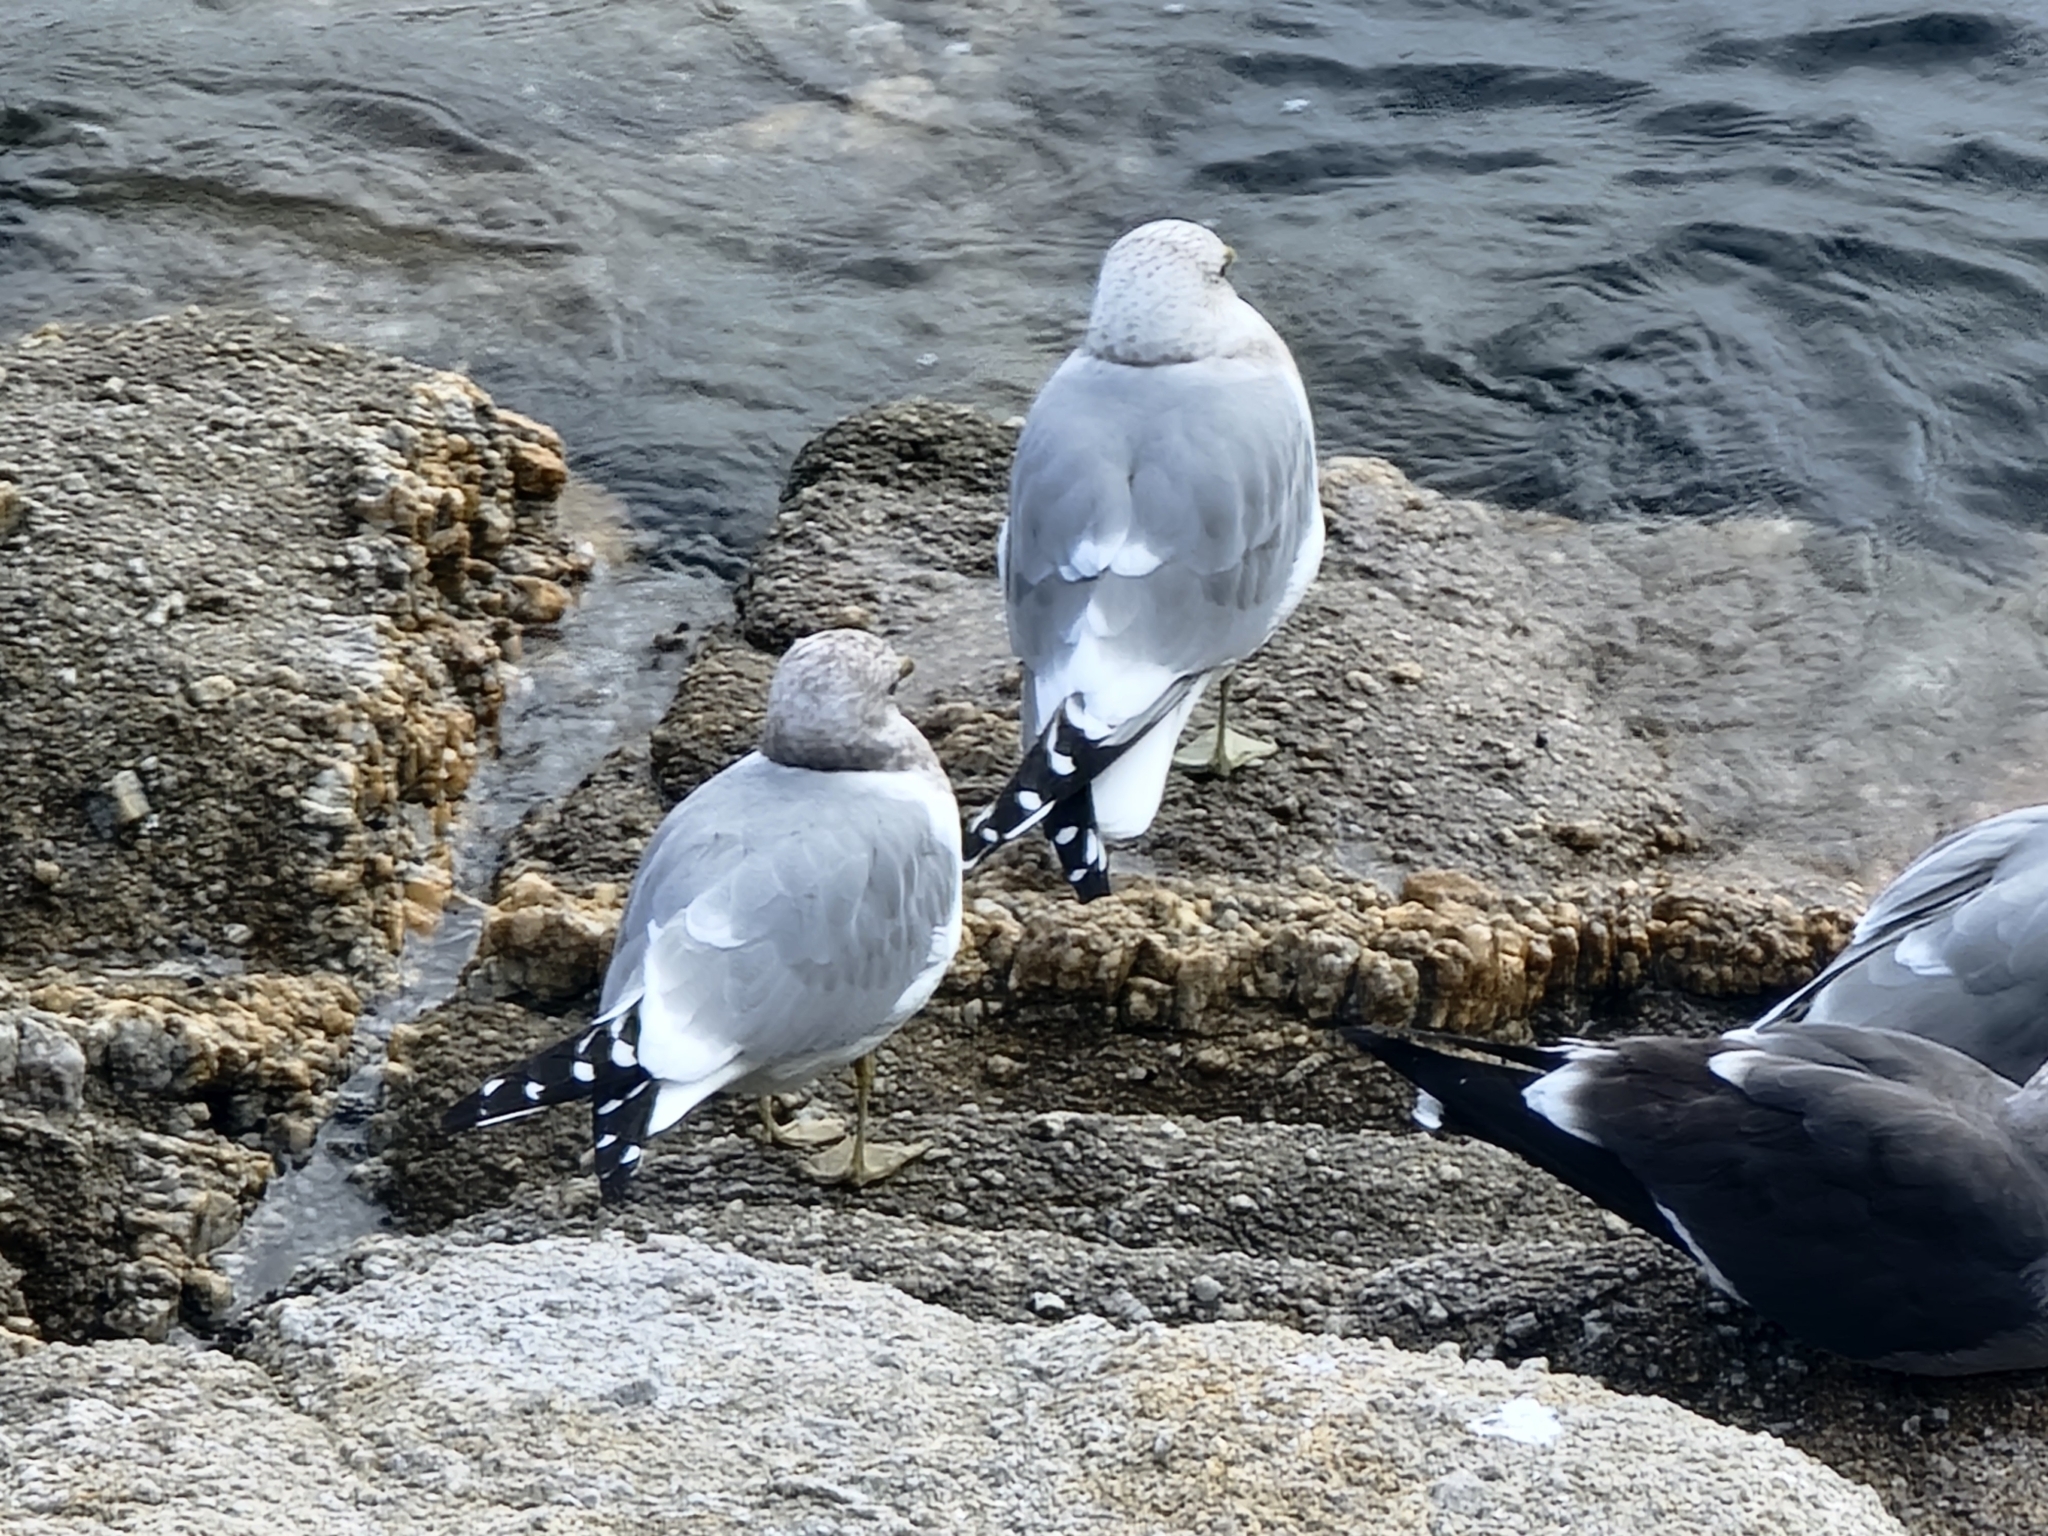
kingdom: Animalia
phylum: Chordata
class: Aves
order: Charadriiformes
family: Laridae
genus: Larus
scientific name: Larus brachyrhynchus
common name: Short-billed gull
